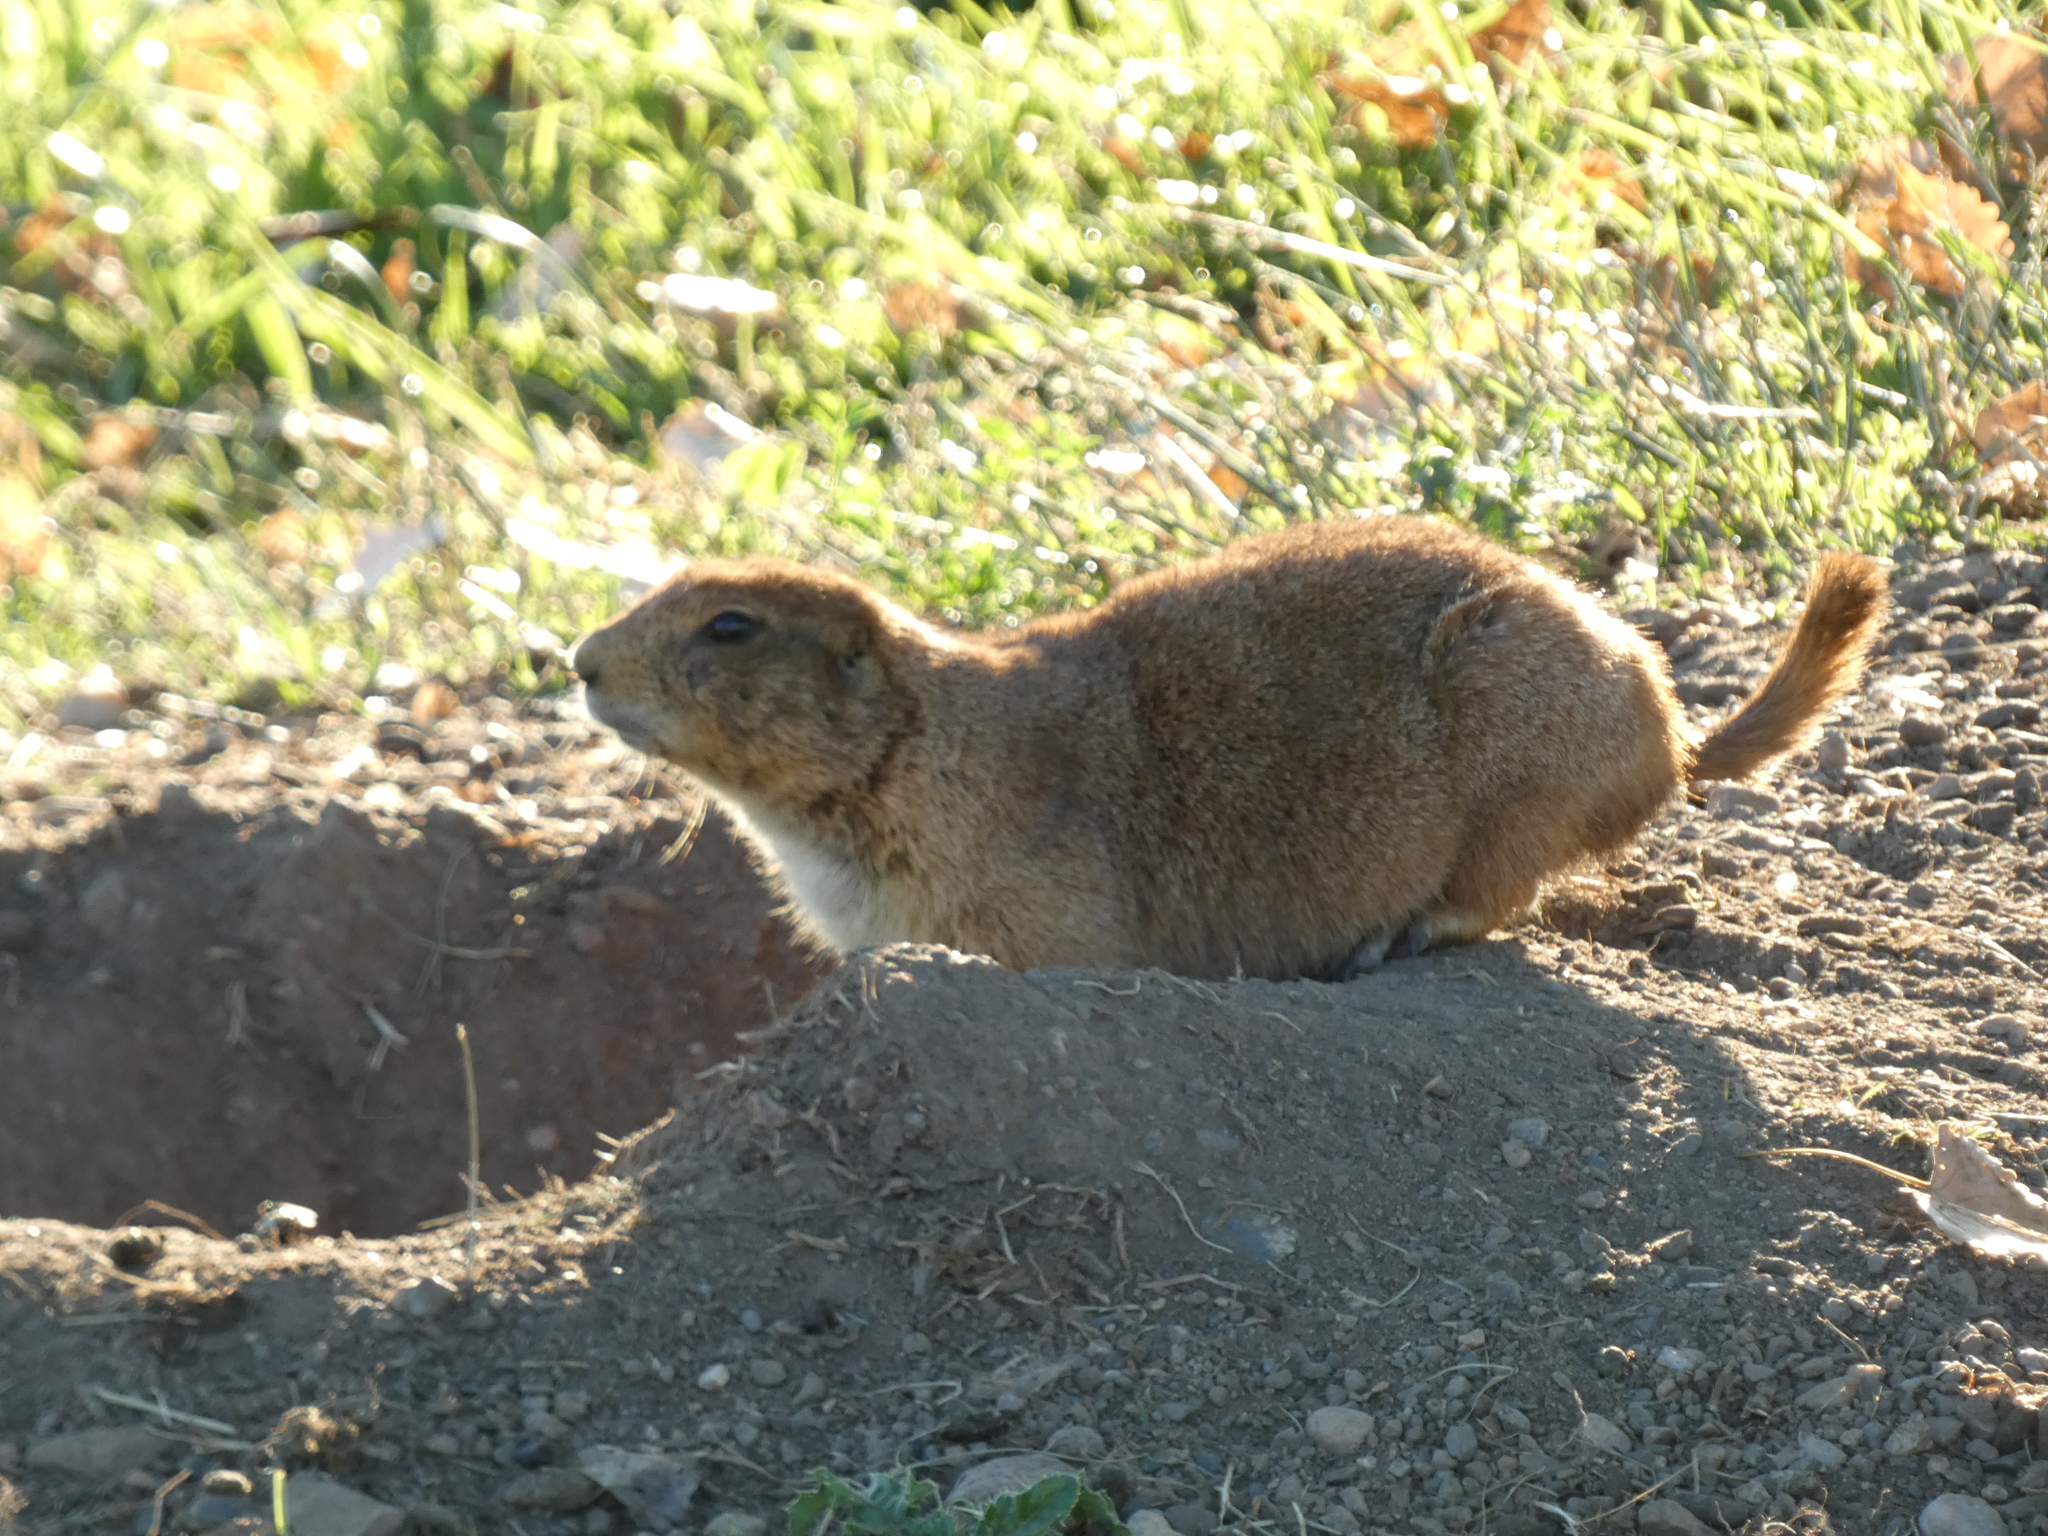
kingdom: Animalia
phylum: Chordata
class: Mammalia
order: Rodentia
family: Sciuridae
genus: Cynomys
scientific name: Cynomys ludovicianus
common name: Black-tailed prairie dog
